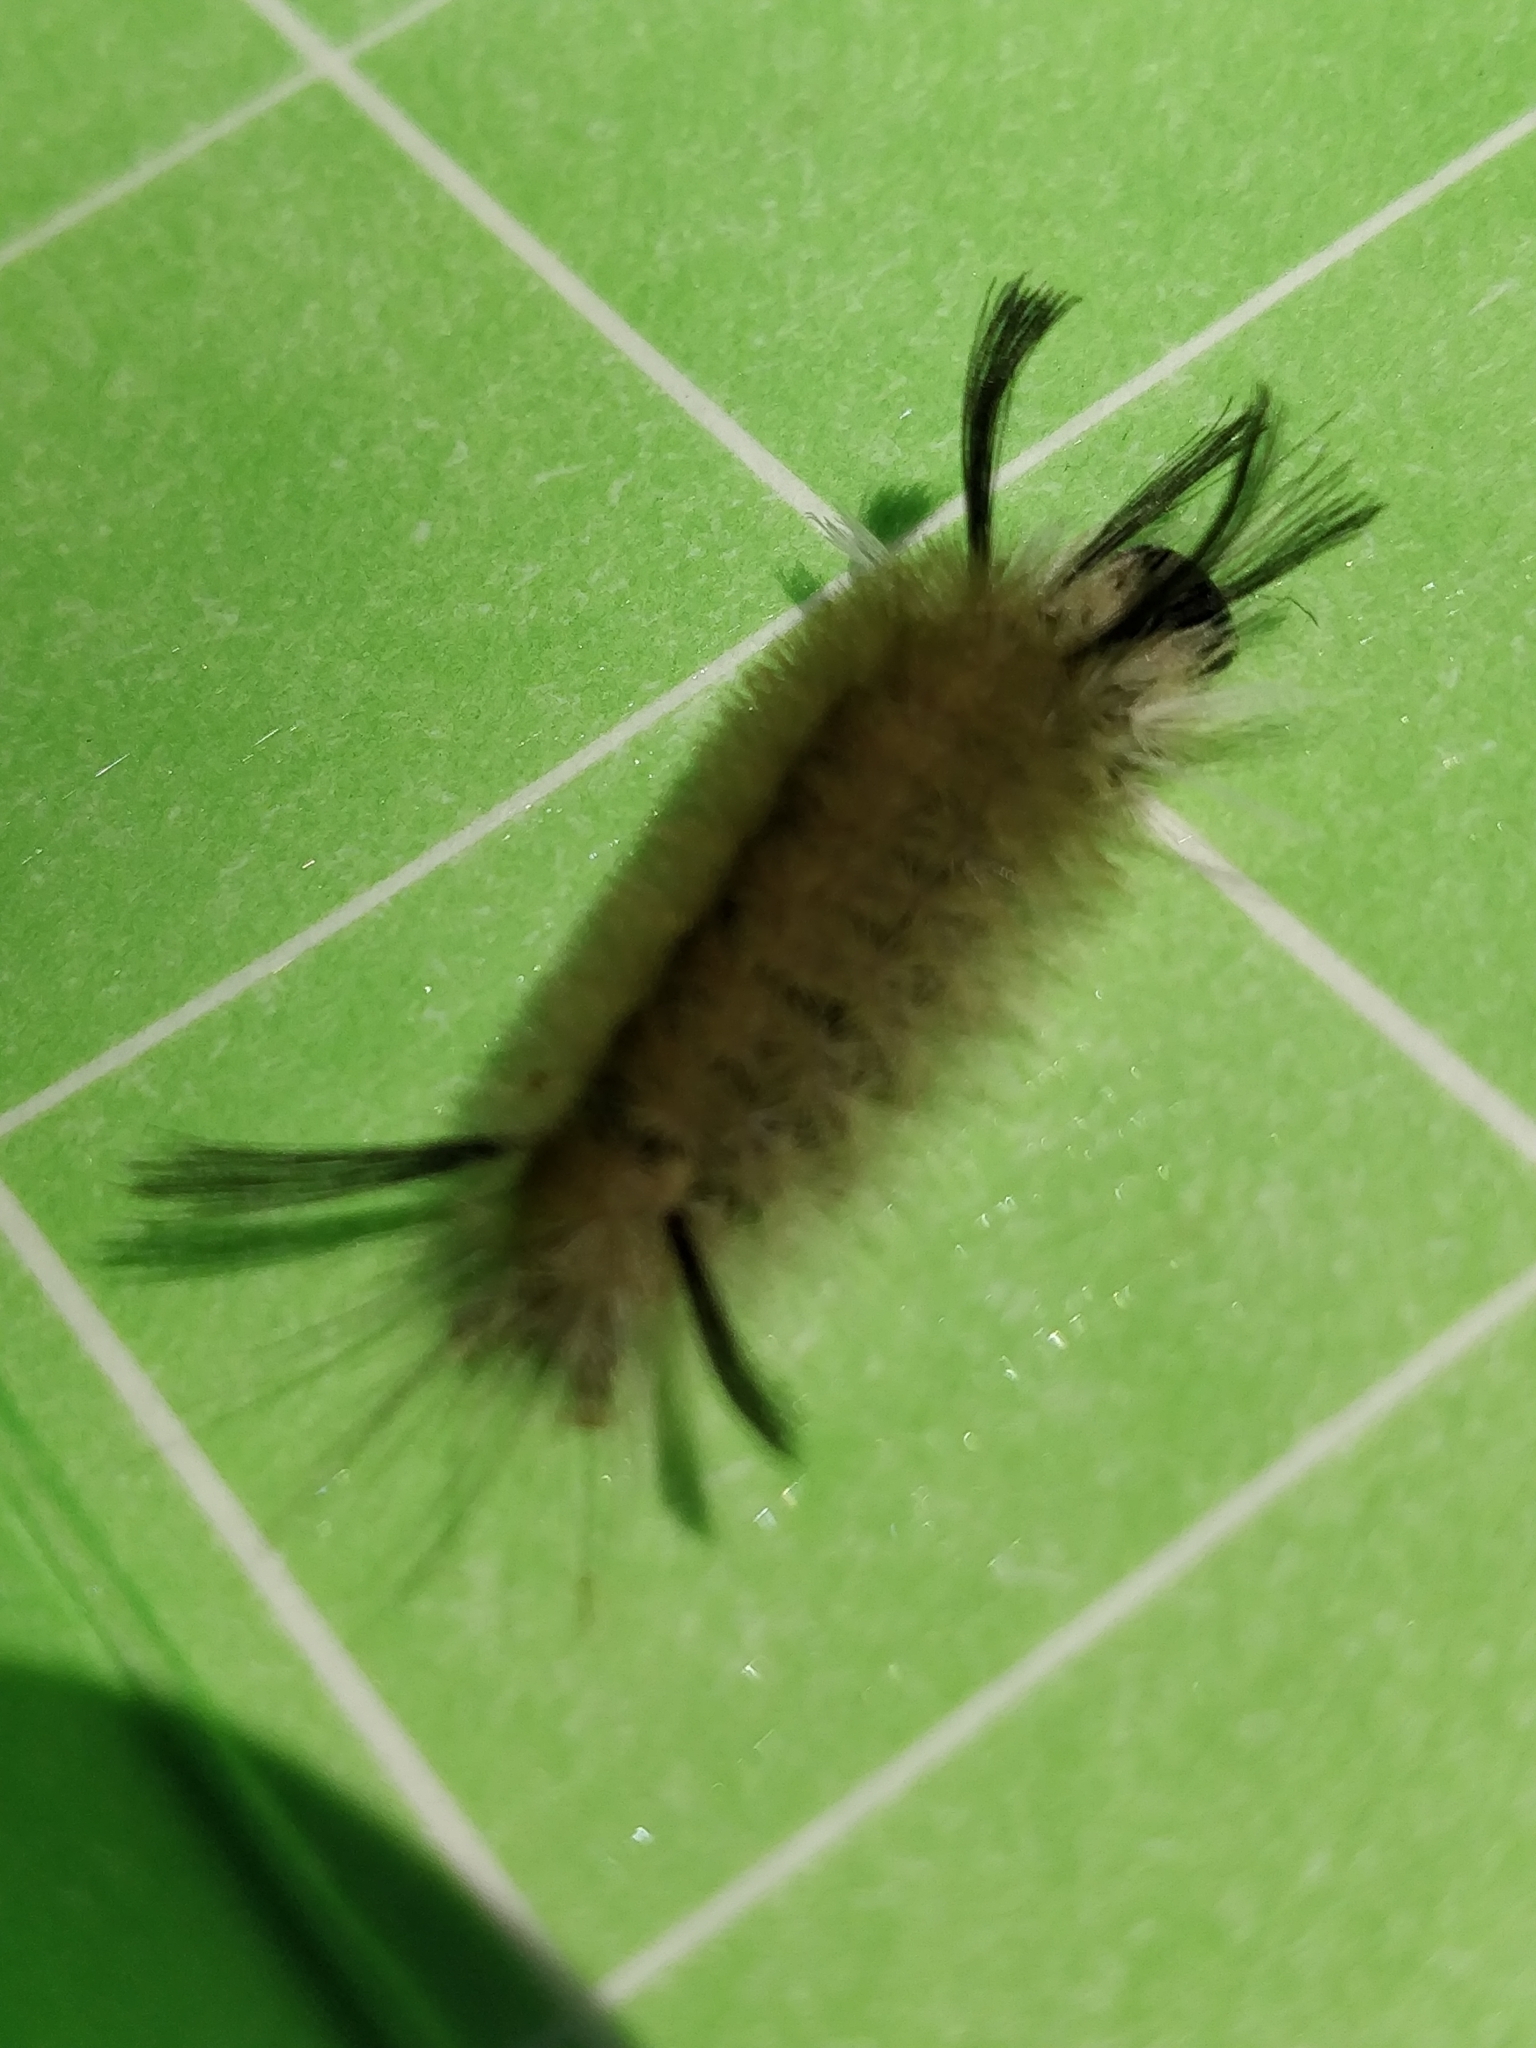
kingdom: Animalia
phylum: Arthropoda
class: Insecta
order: Lepidoptera
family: Erebidae
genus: Halysidota
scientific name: Halysidota tessellaris
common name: Banded tussock moth
